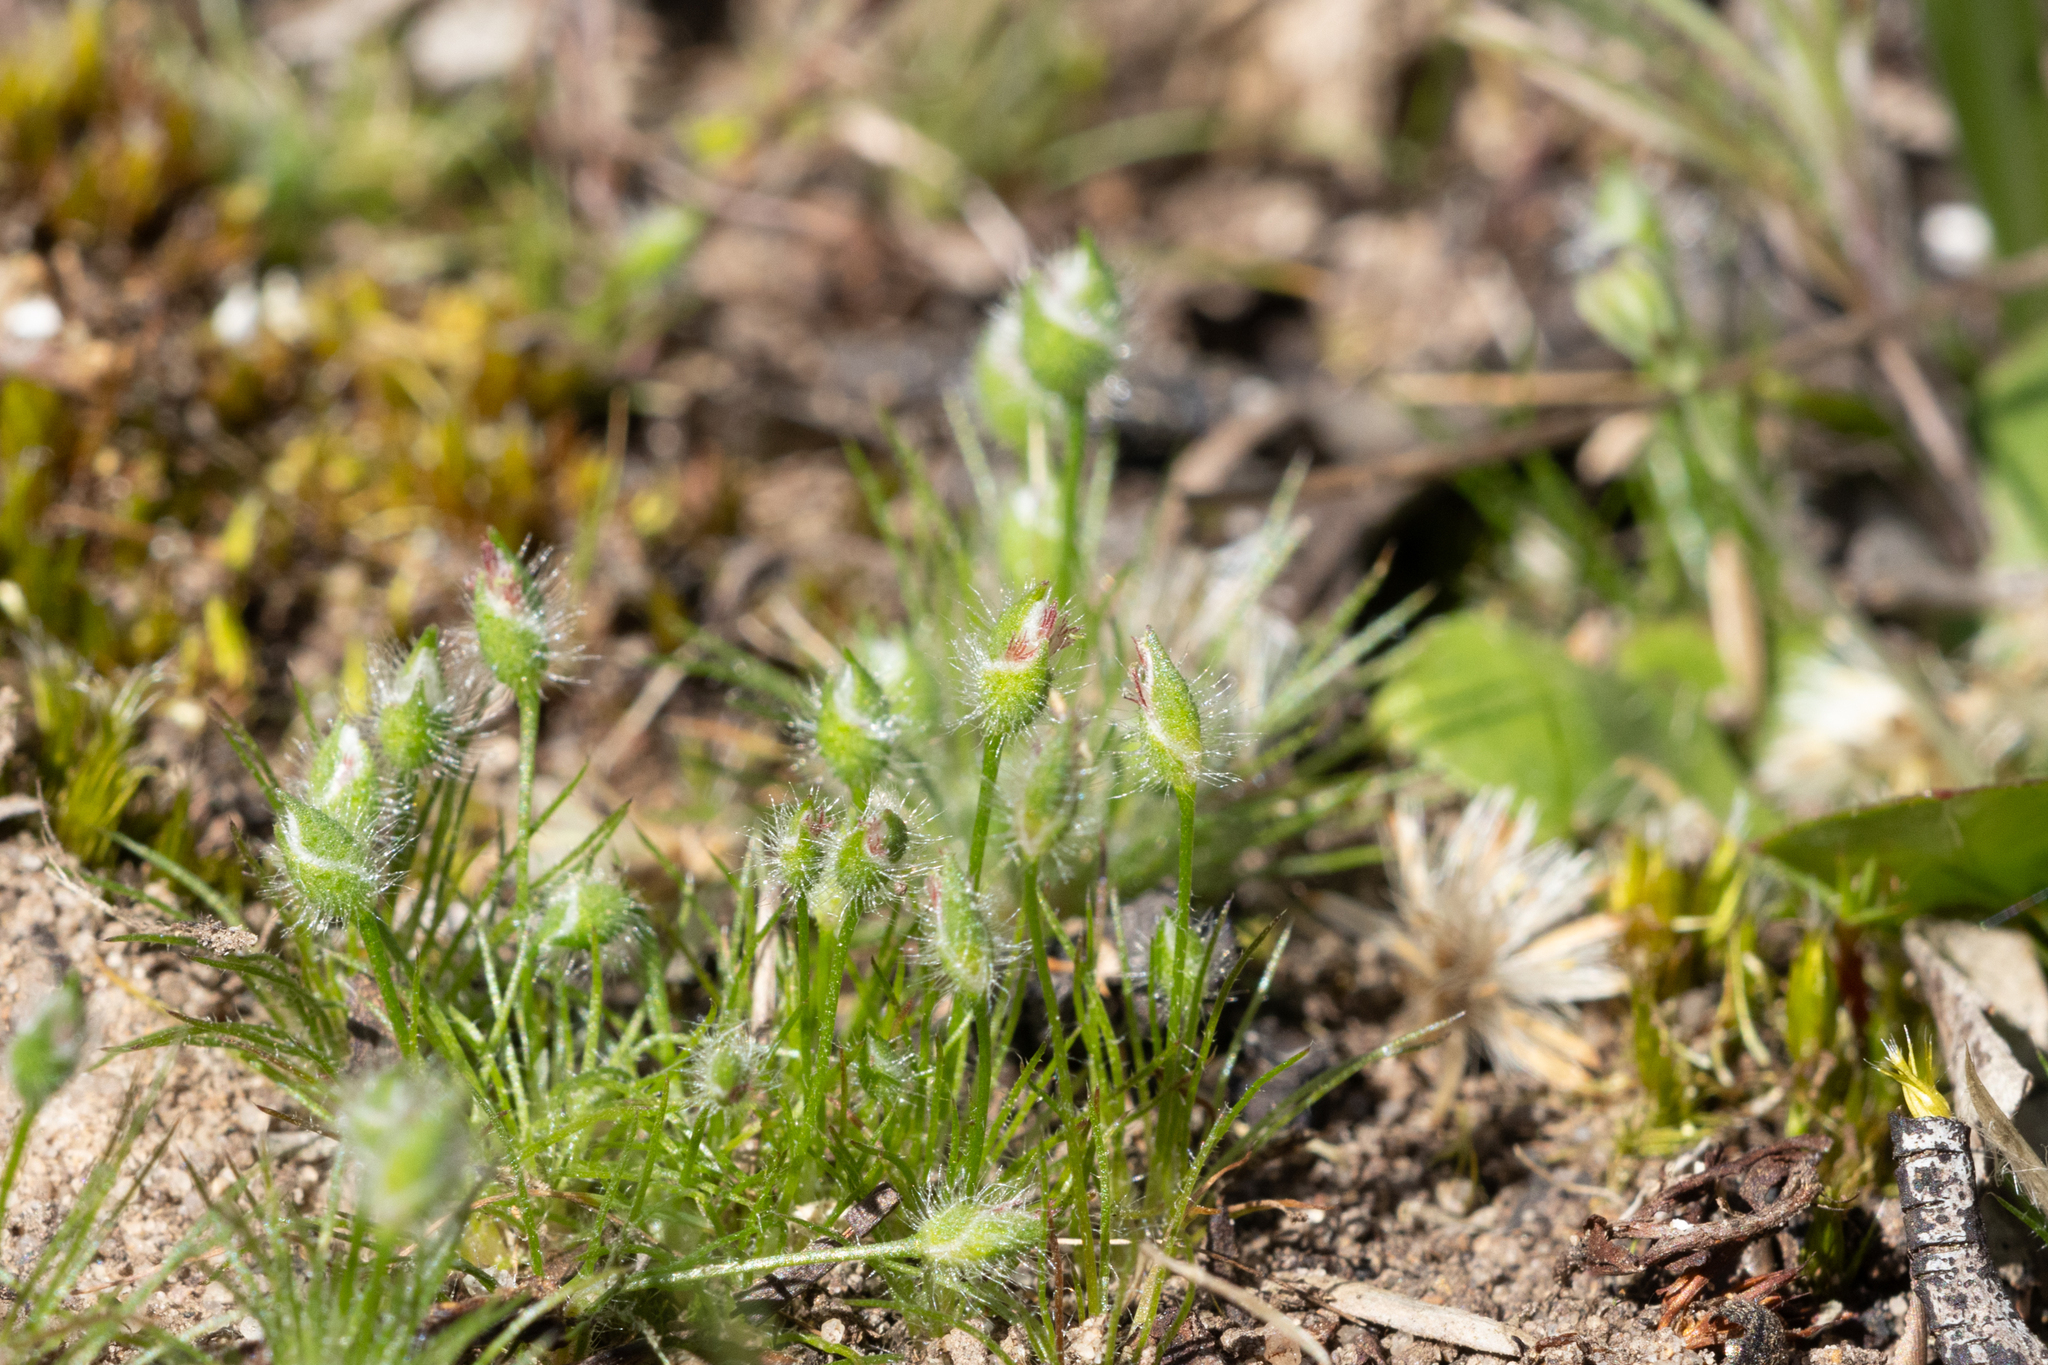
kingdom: Plantae
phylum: Tracheophyta
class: Liliopsida
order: Poales
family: Restionaceae
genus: Centrolepis
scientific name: Centrolepis strigosa
